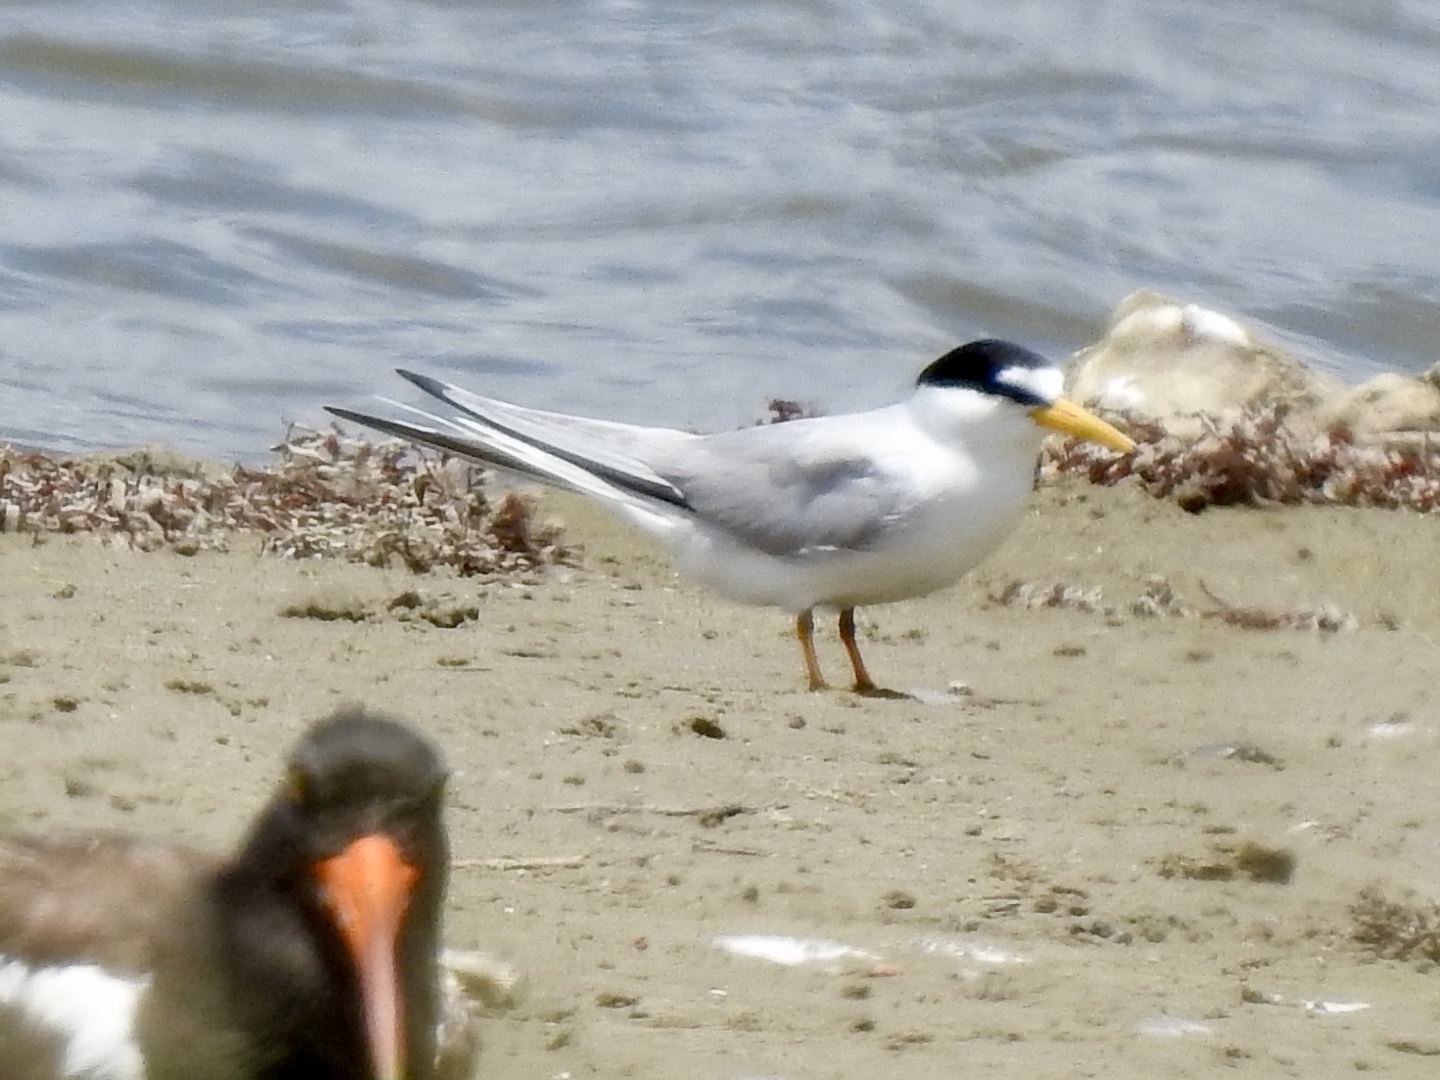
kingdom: Animalia
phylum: Chordata
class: Aves
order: Charadriiformes
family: Laridae
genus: Sternula
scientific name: Sternula antillarum
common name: Least tern
